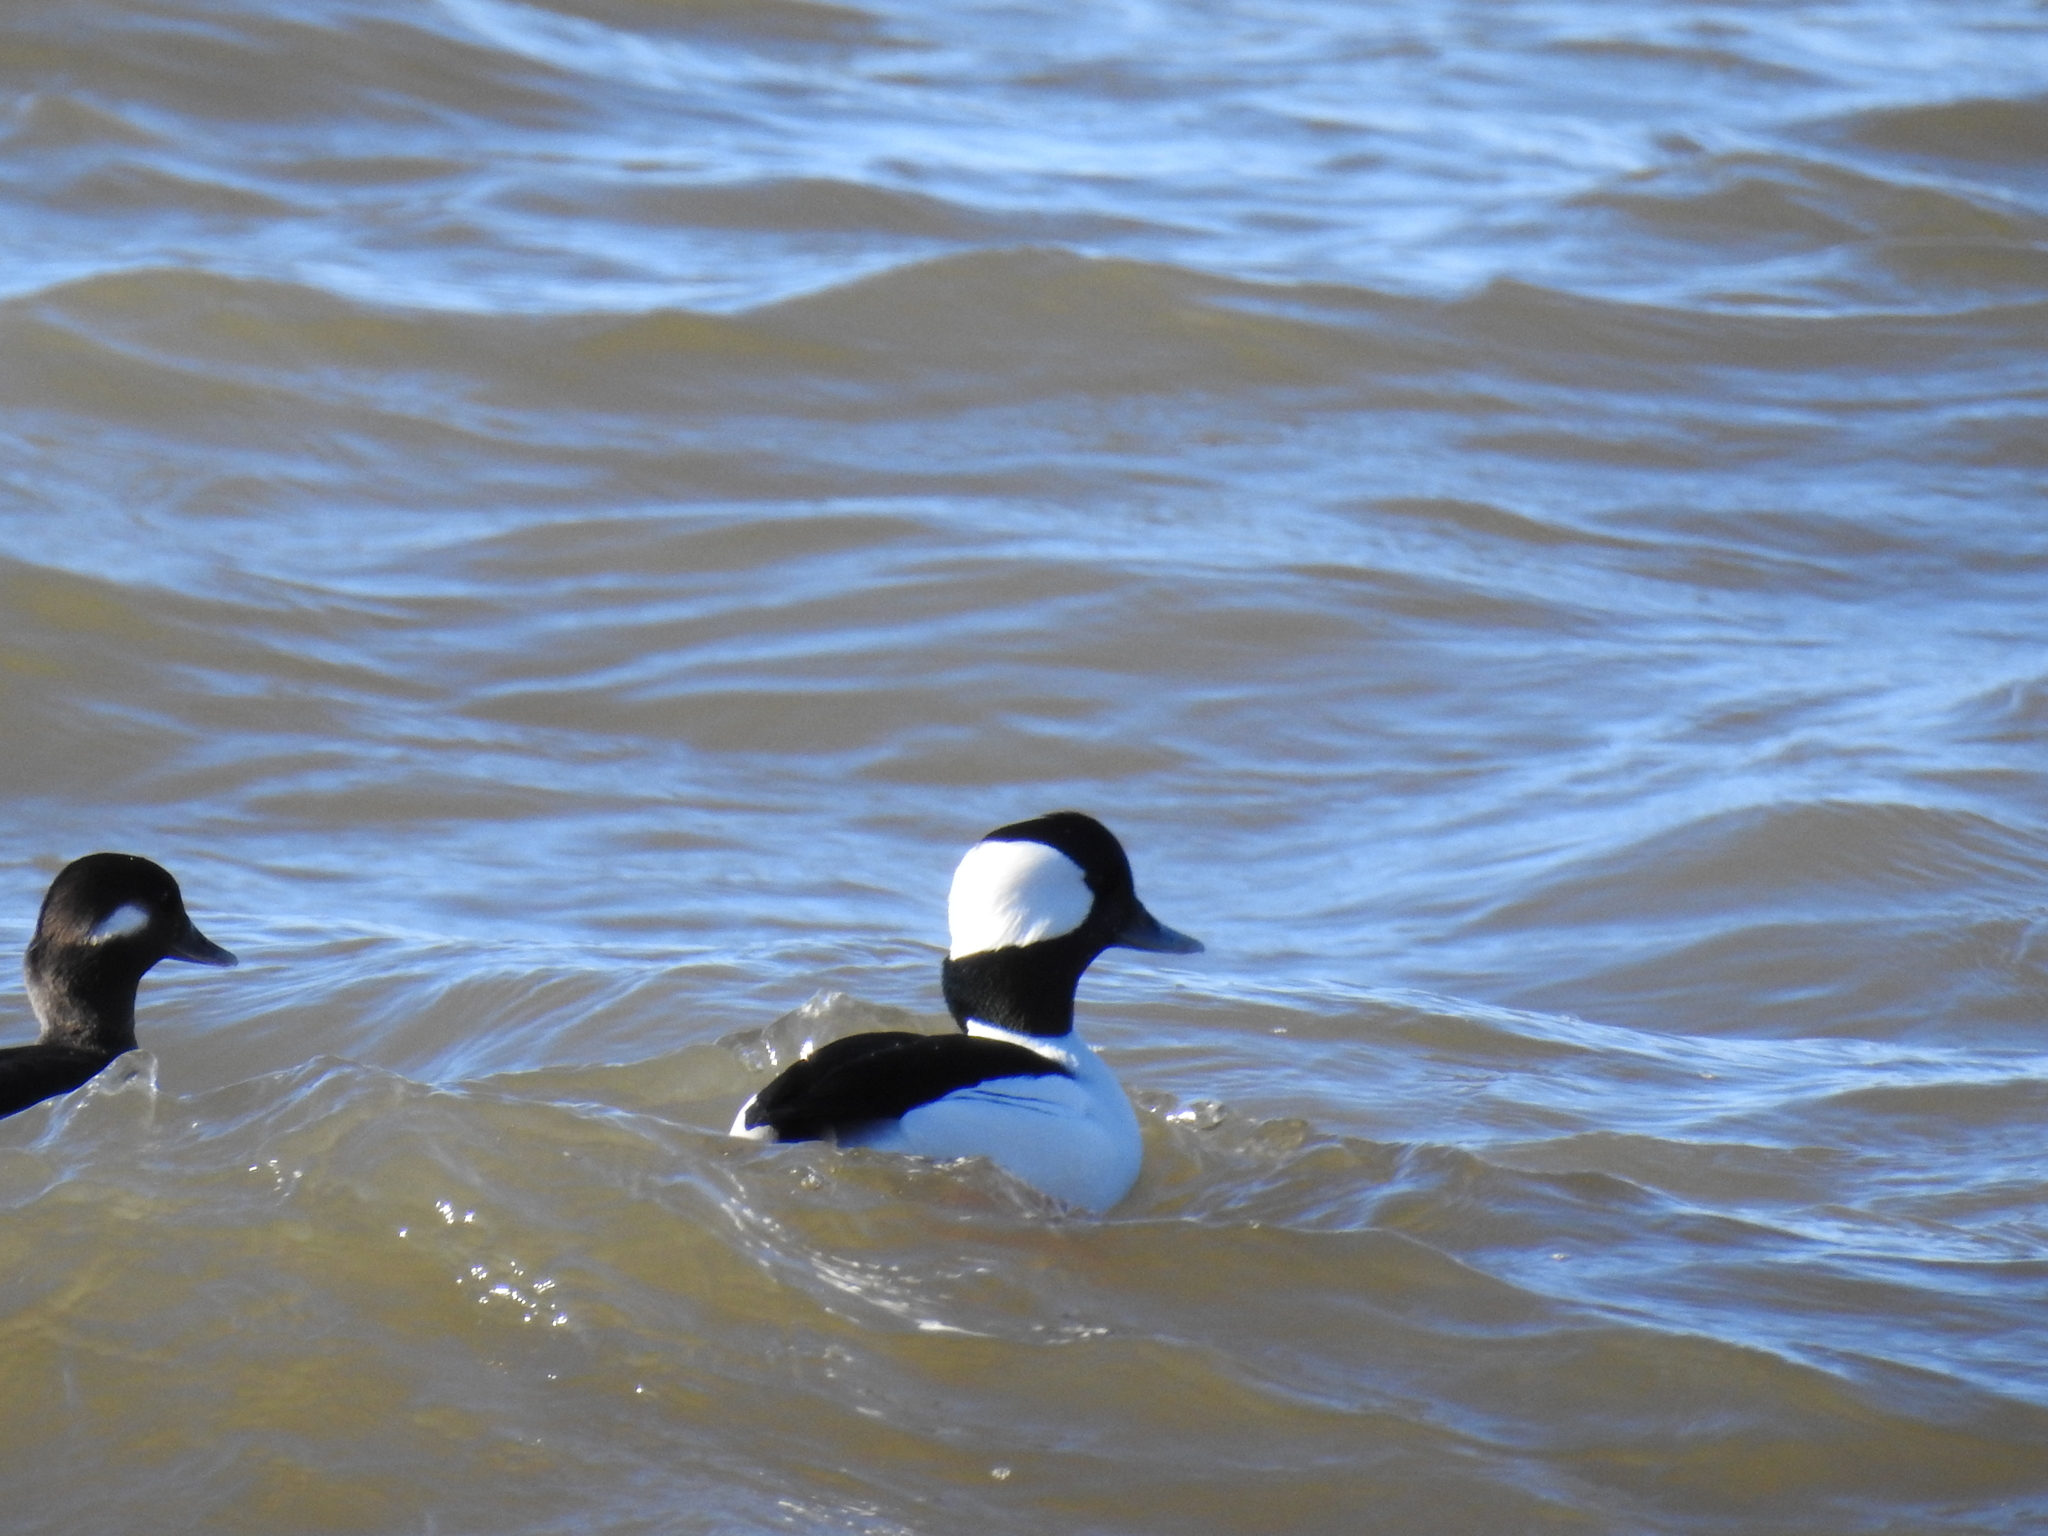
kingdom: Animalia
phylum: Chordata
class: Aves
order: Anseriformes
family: Anatidae
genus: Bucephala
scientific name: Bucephala albeola
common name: Bufflehead
